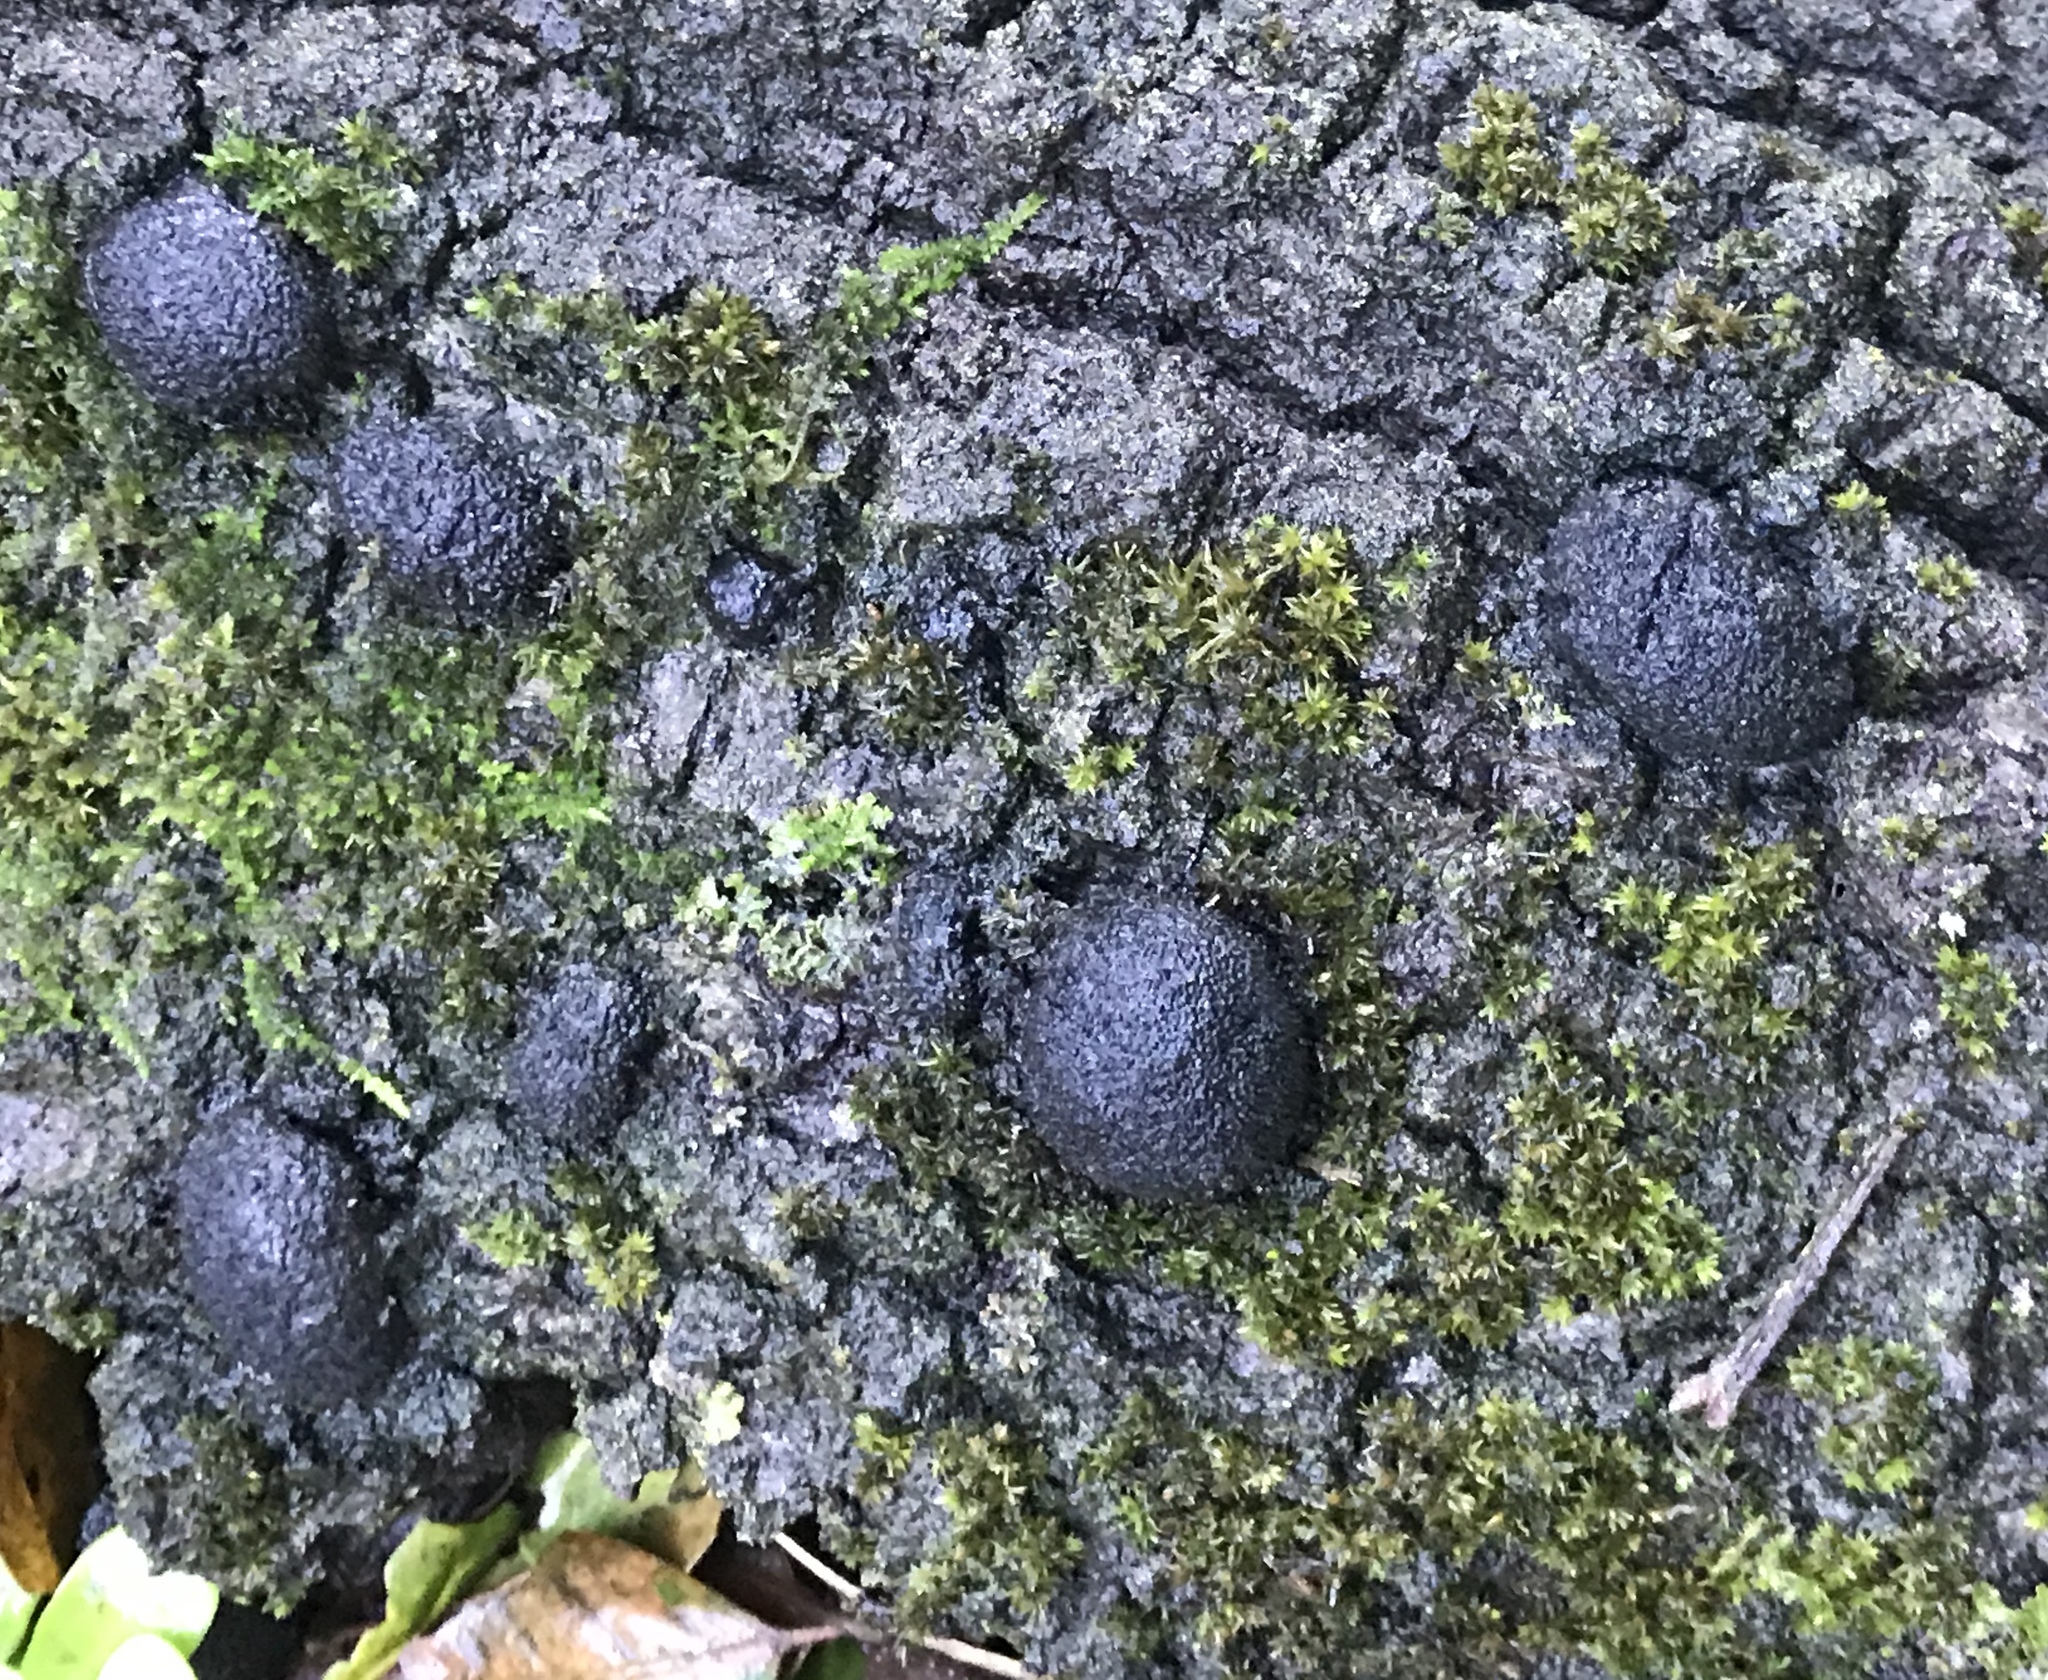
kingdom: Fungi
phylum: Ascomycota
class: Sordariomycetes
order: Xylariales
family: Hypoxylaceae
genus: Annulohypoxylon
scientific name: Annulohypoxylon thouarsianum
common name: Cramp balls
